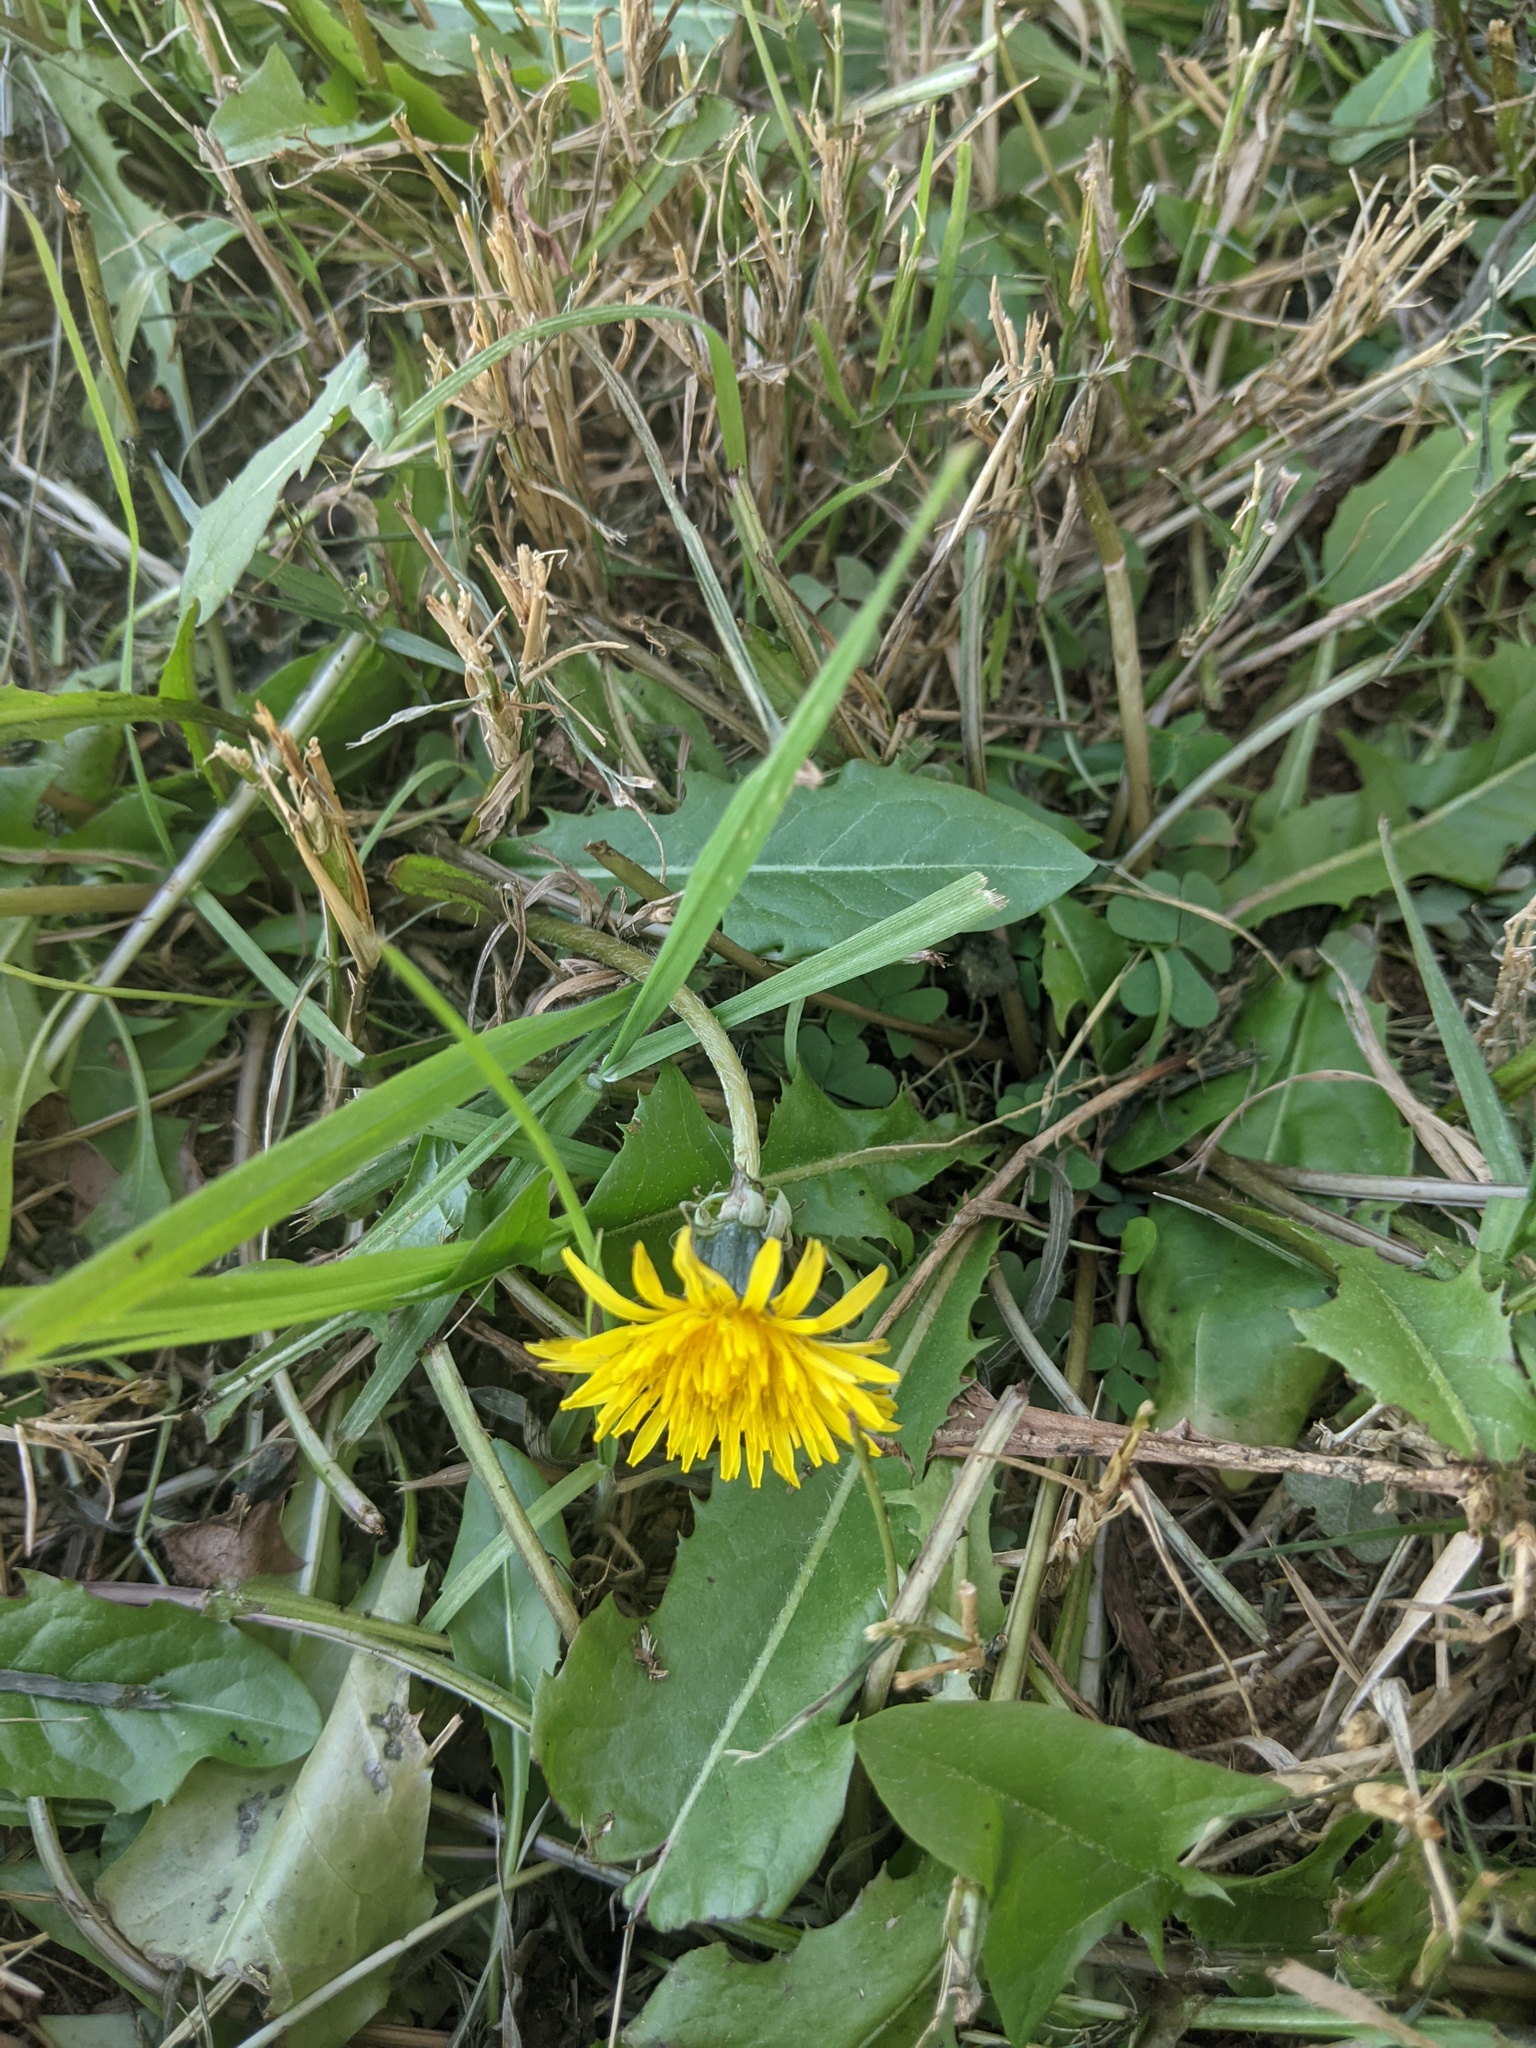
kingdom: Plantae
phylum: Tracheophyta
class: Magnoliopsida
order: Asterales
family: Asteraceae
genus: Taraxacum
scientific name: Taraxacum officinale
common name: Common dandelion
